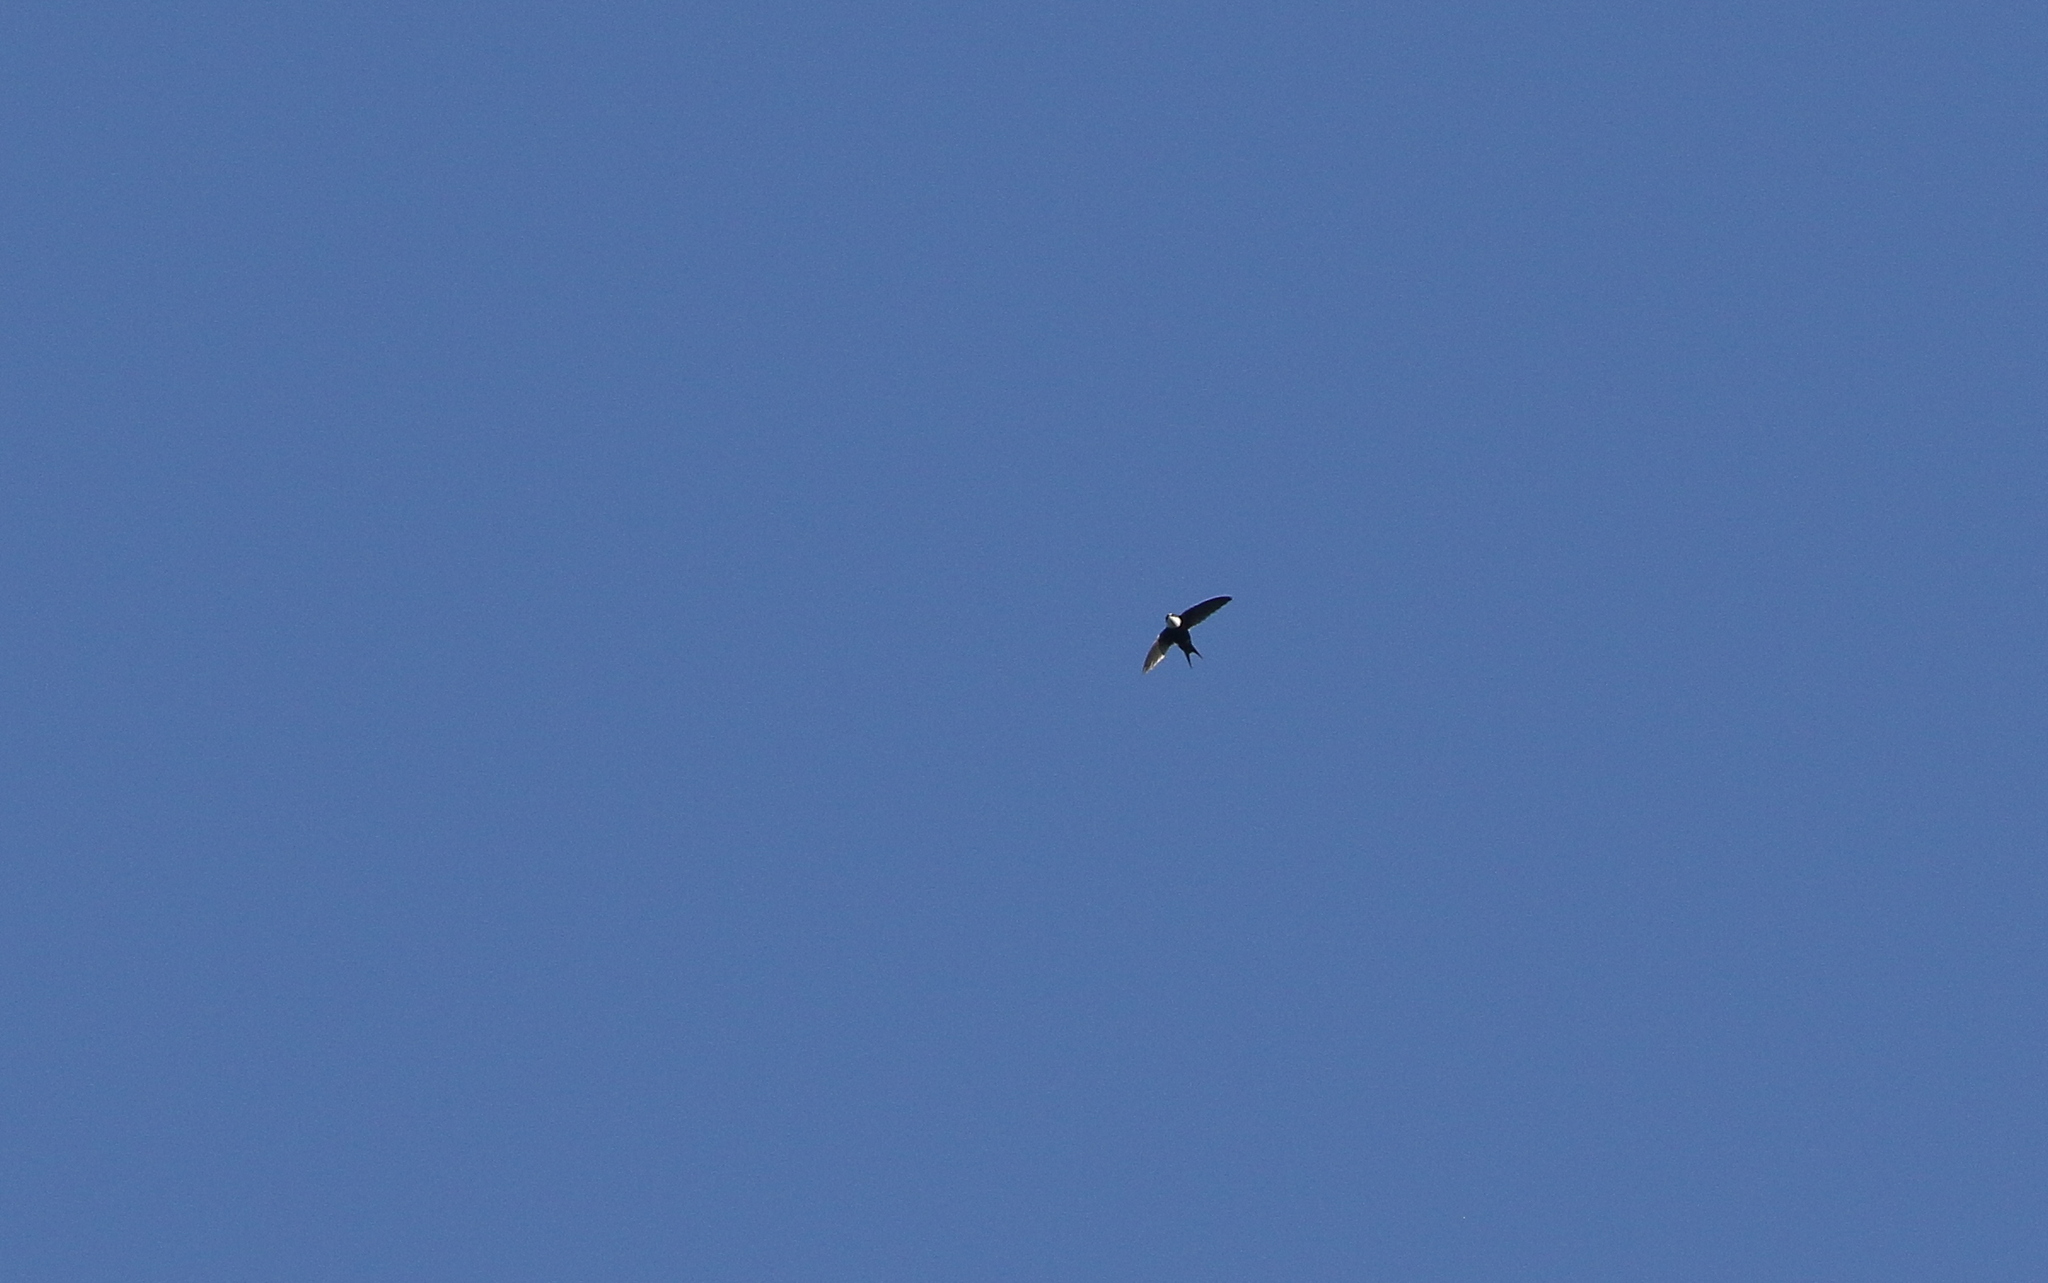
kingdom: Animalia
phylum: Chordata
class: Aves
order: Apodiformes
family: Apodidae
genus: Panyptila
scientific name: Panyptila cayennensis
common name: Lesser swallow-tailed swift
